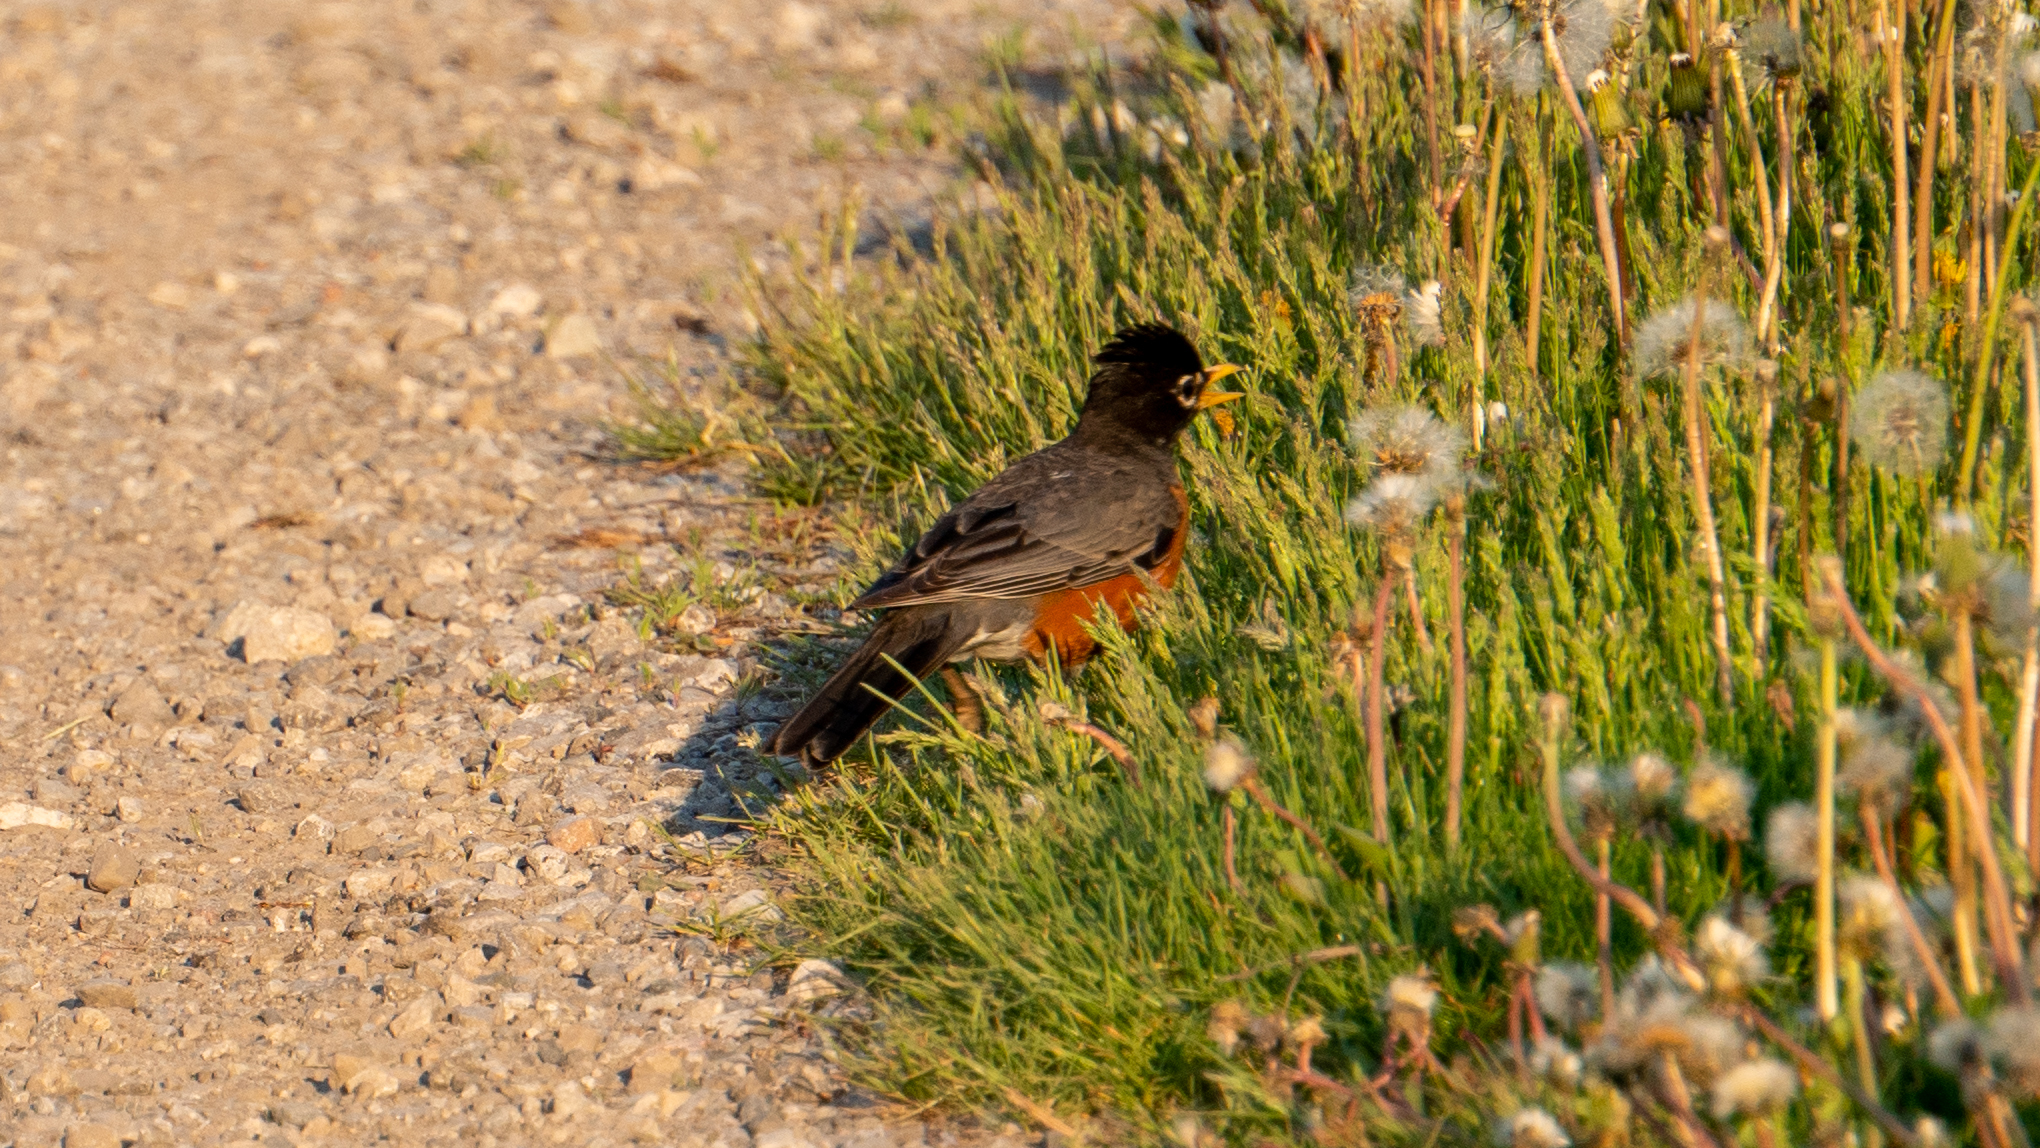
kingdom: Animalia
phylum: Chordata
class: Aves
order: Passeriformes
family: Turdidae
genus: Turdus
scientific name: Turdus migratorius
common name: American robin
